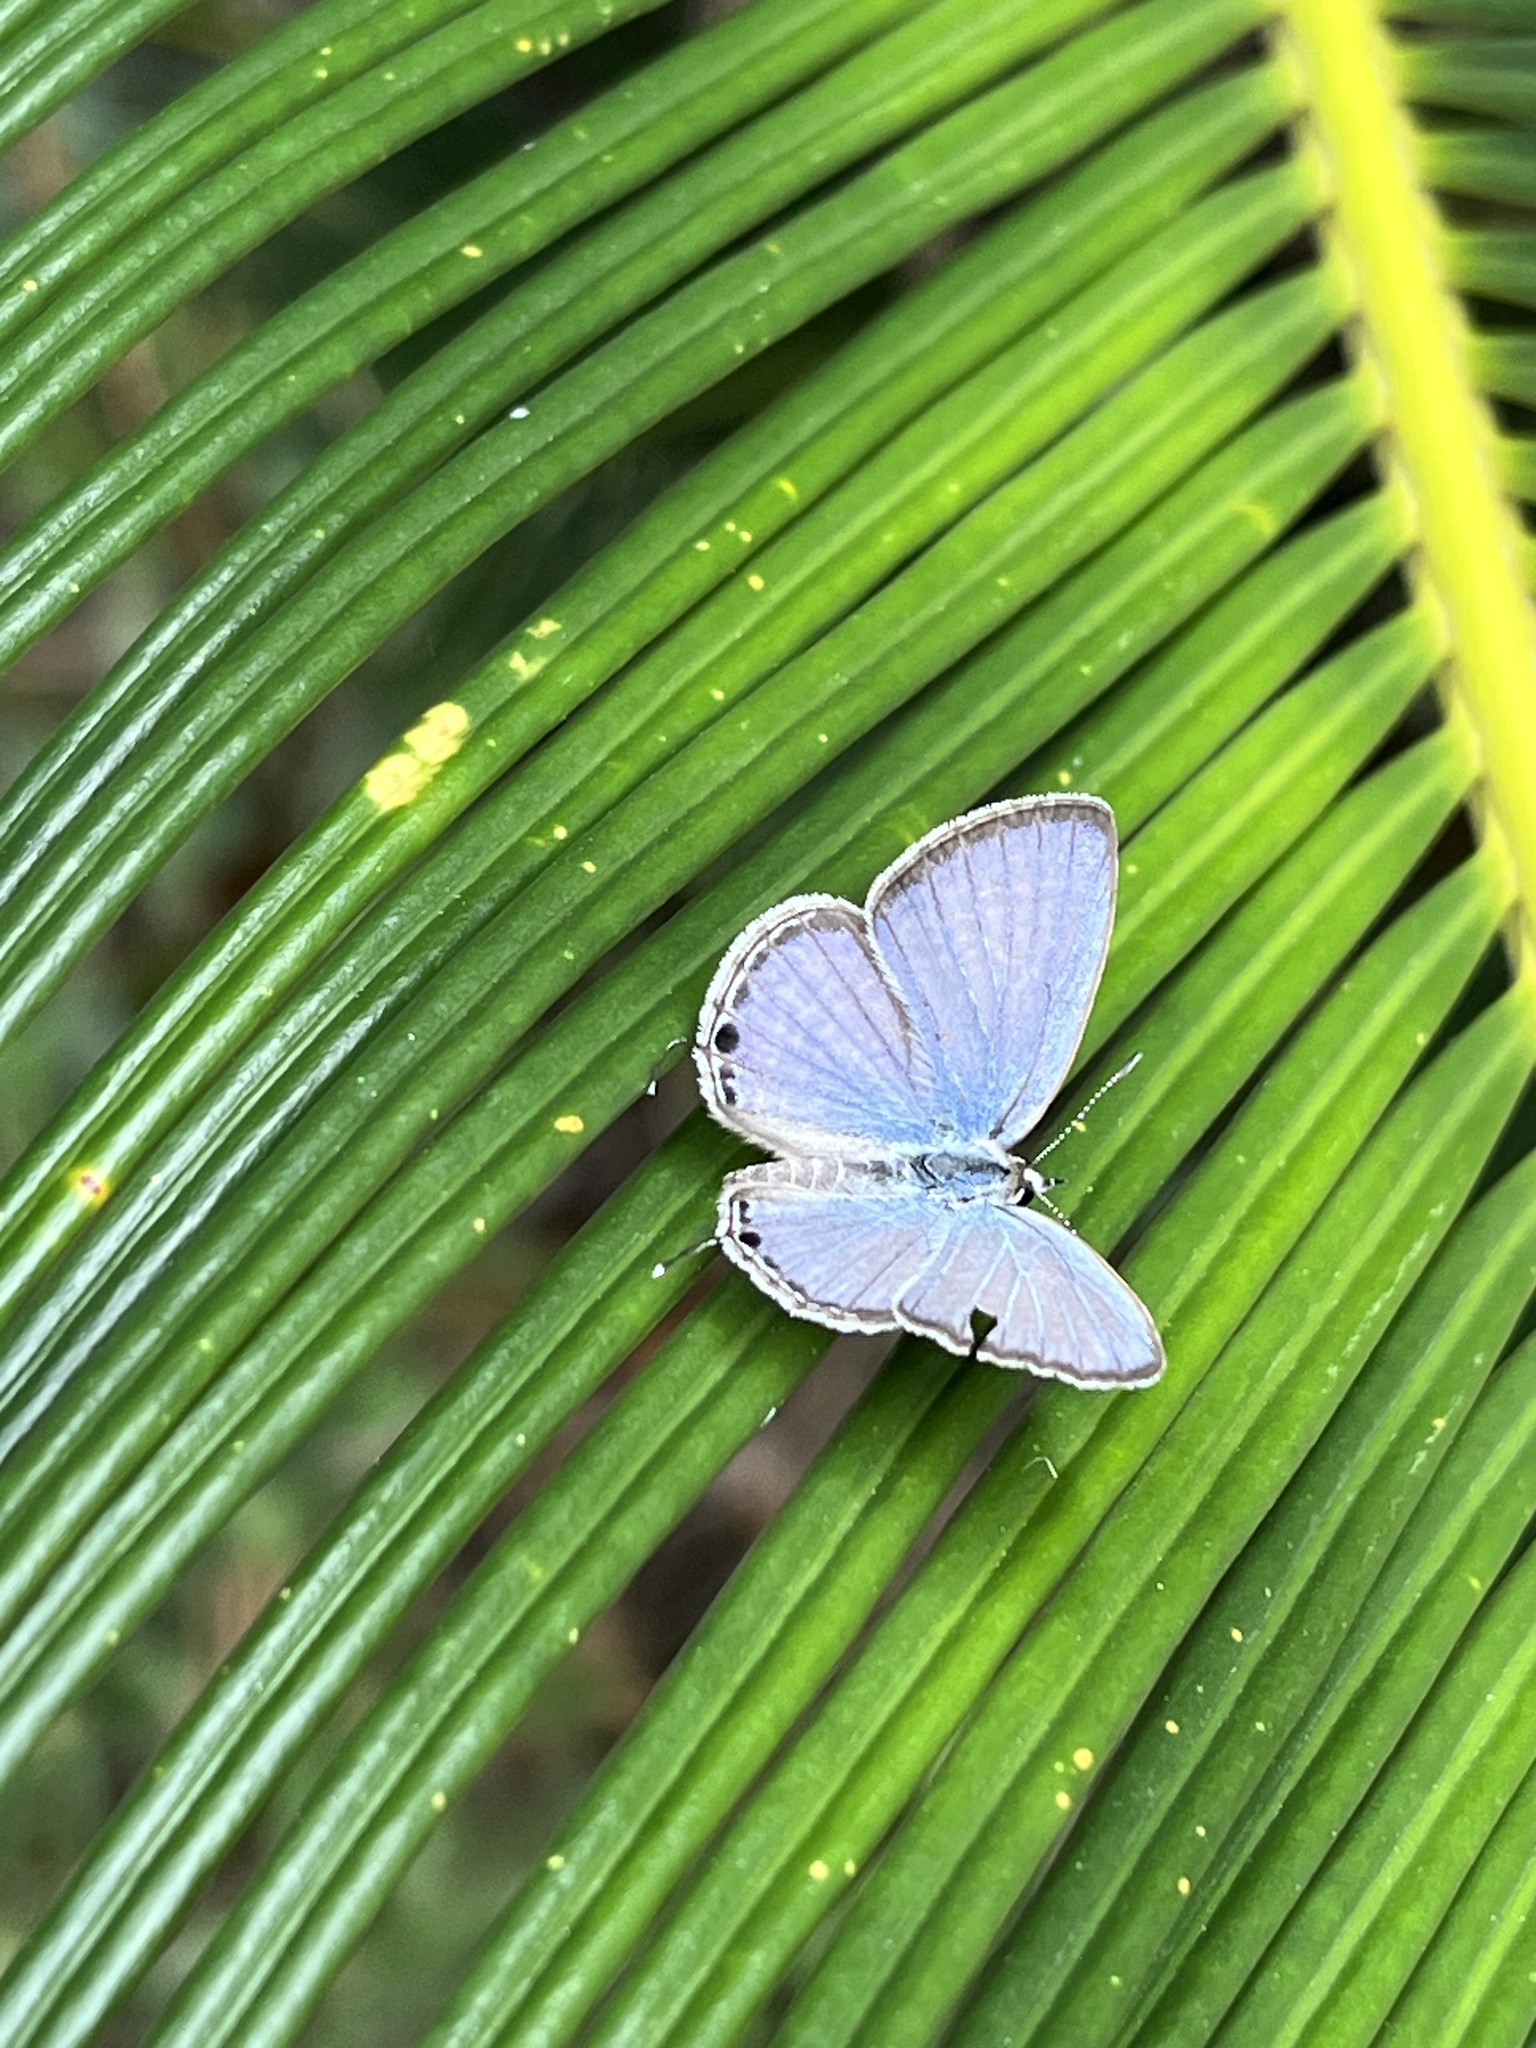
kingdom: Animalia
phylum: Arthropoda
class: Insecta
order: Lepidoptera
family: Lycaenidae
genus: Luthrodes
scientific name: Luthrodes pandava
